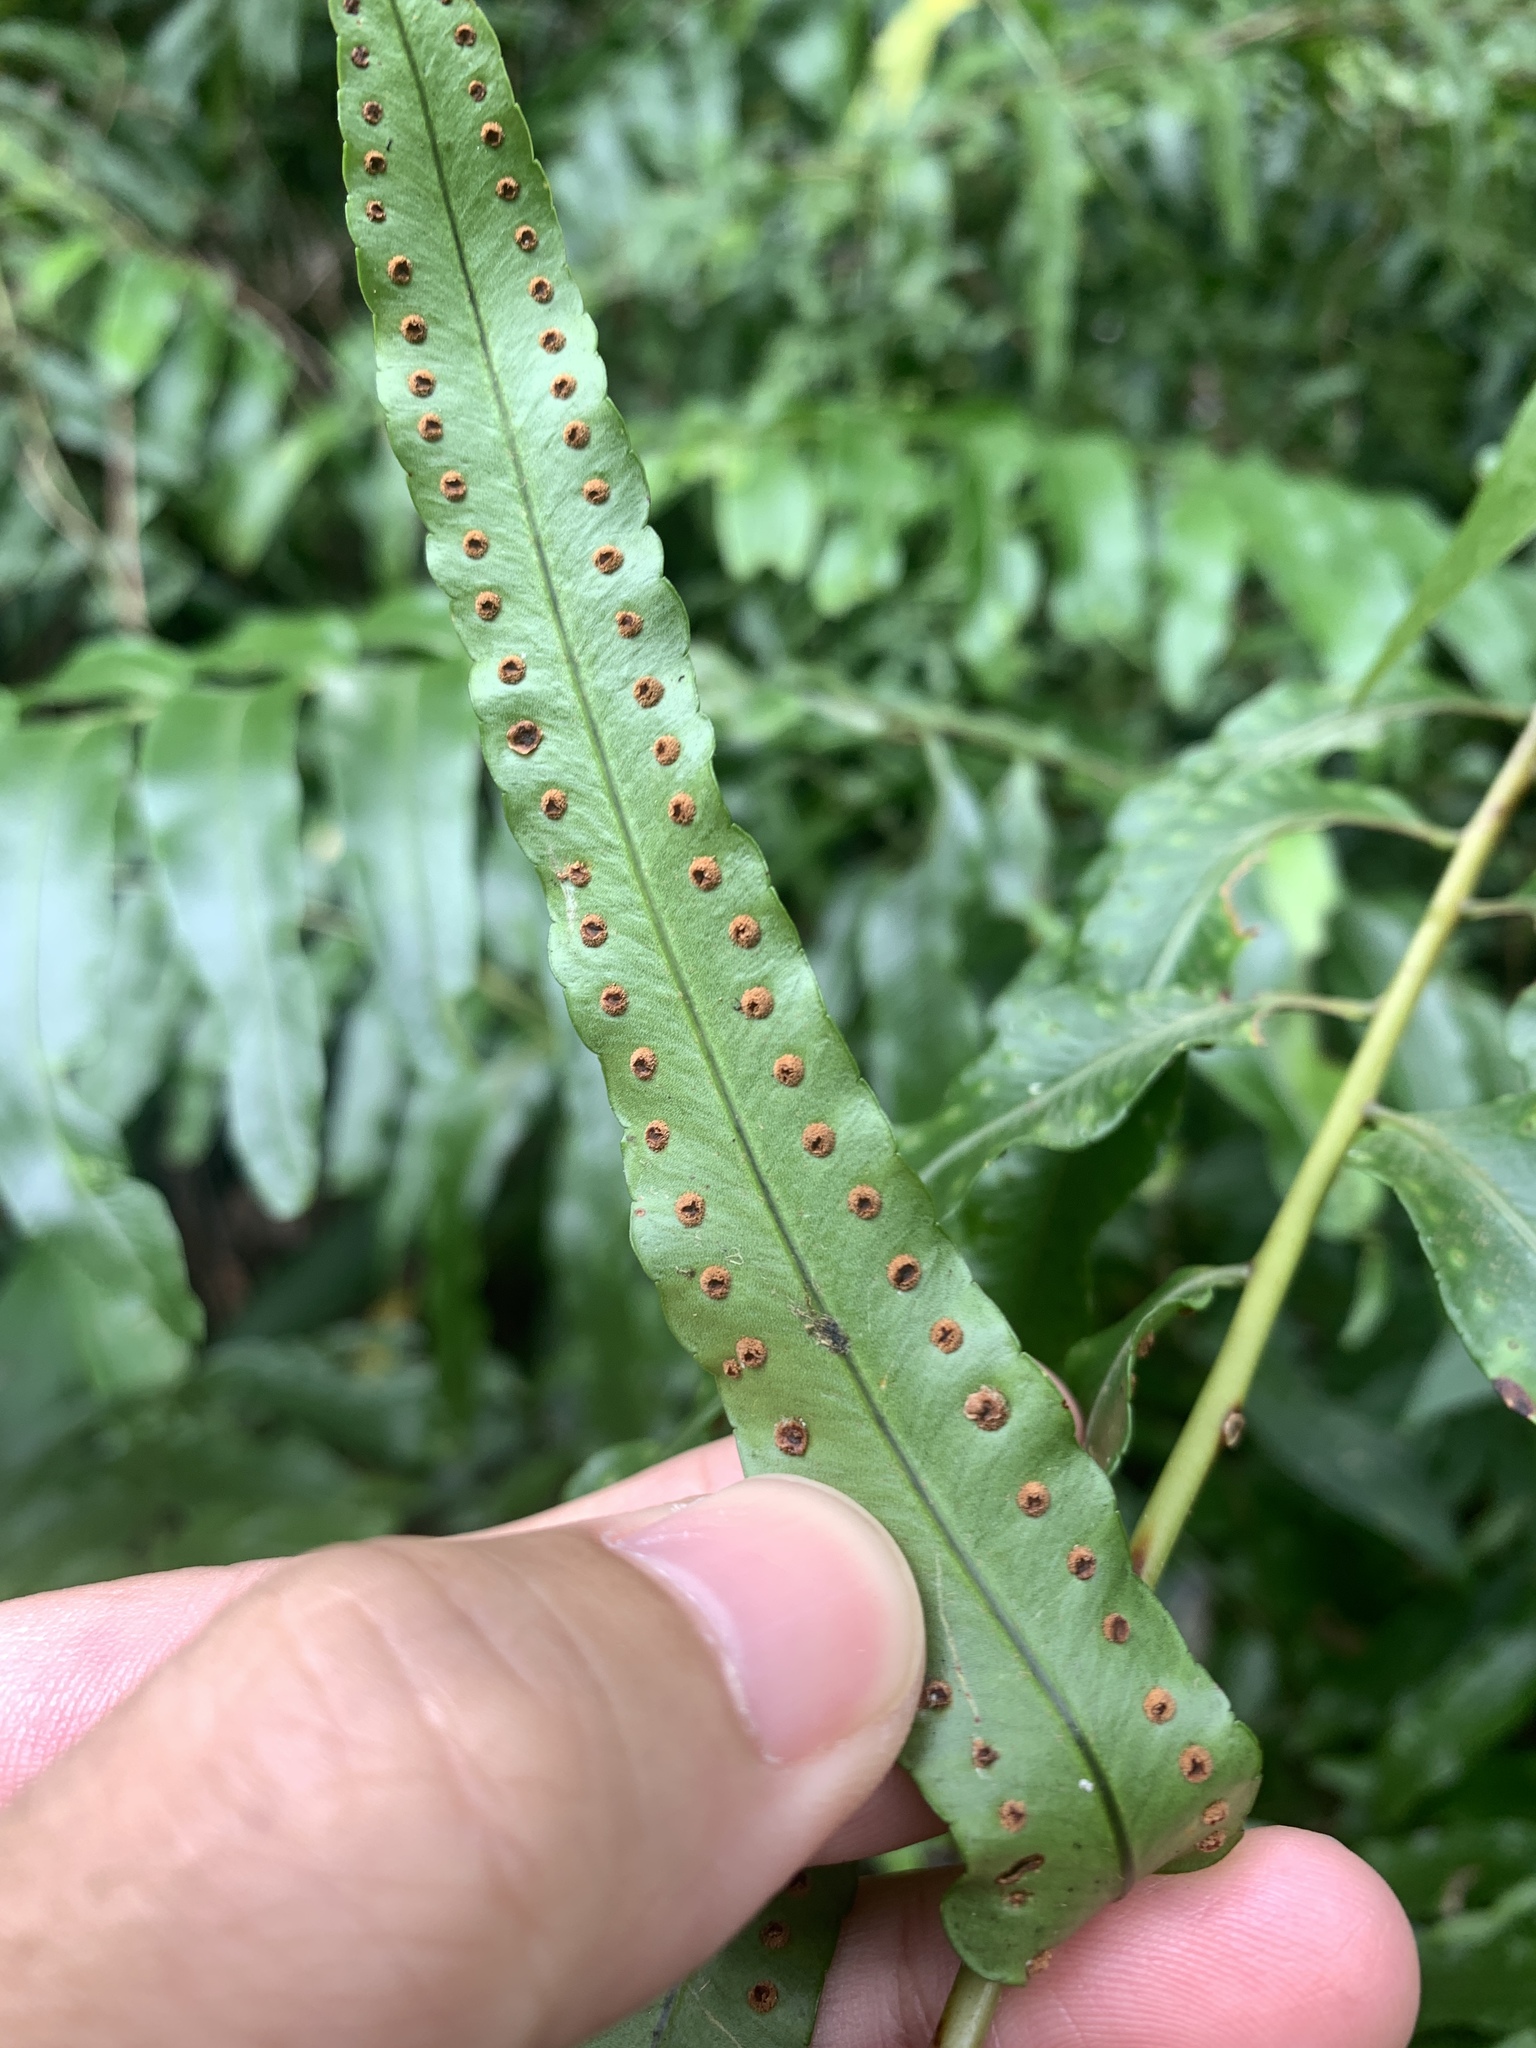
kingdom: Plantae
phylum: Tracheophyta
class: Polypodiopsida
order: Polypodiales
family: Nephrolepidaceae
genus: Nephrolepis
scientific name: Nephrolepis biserrata
